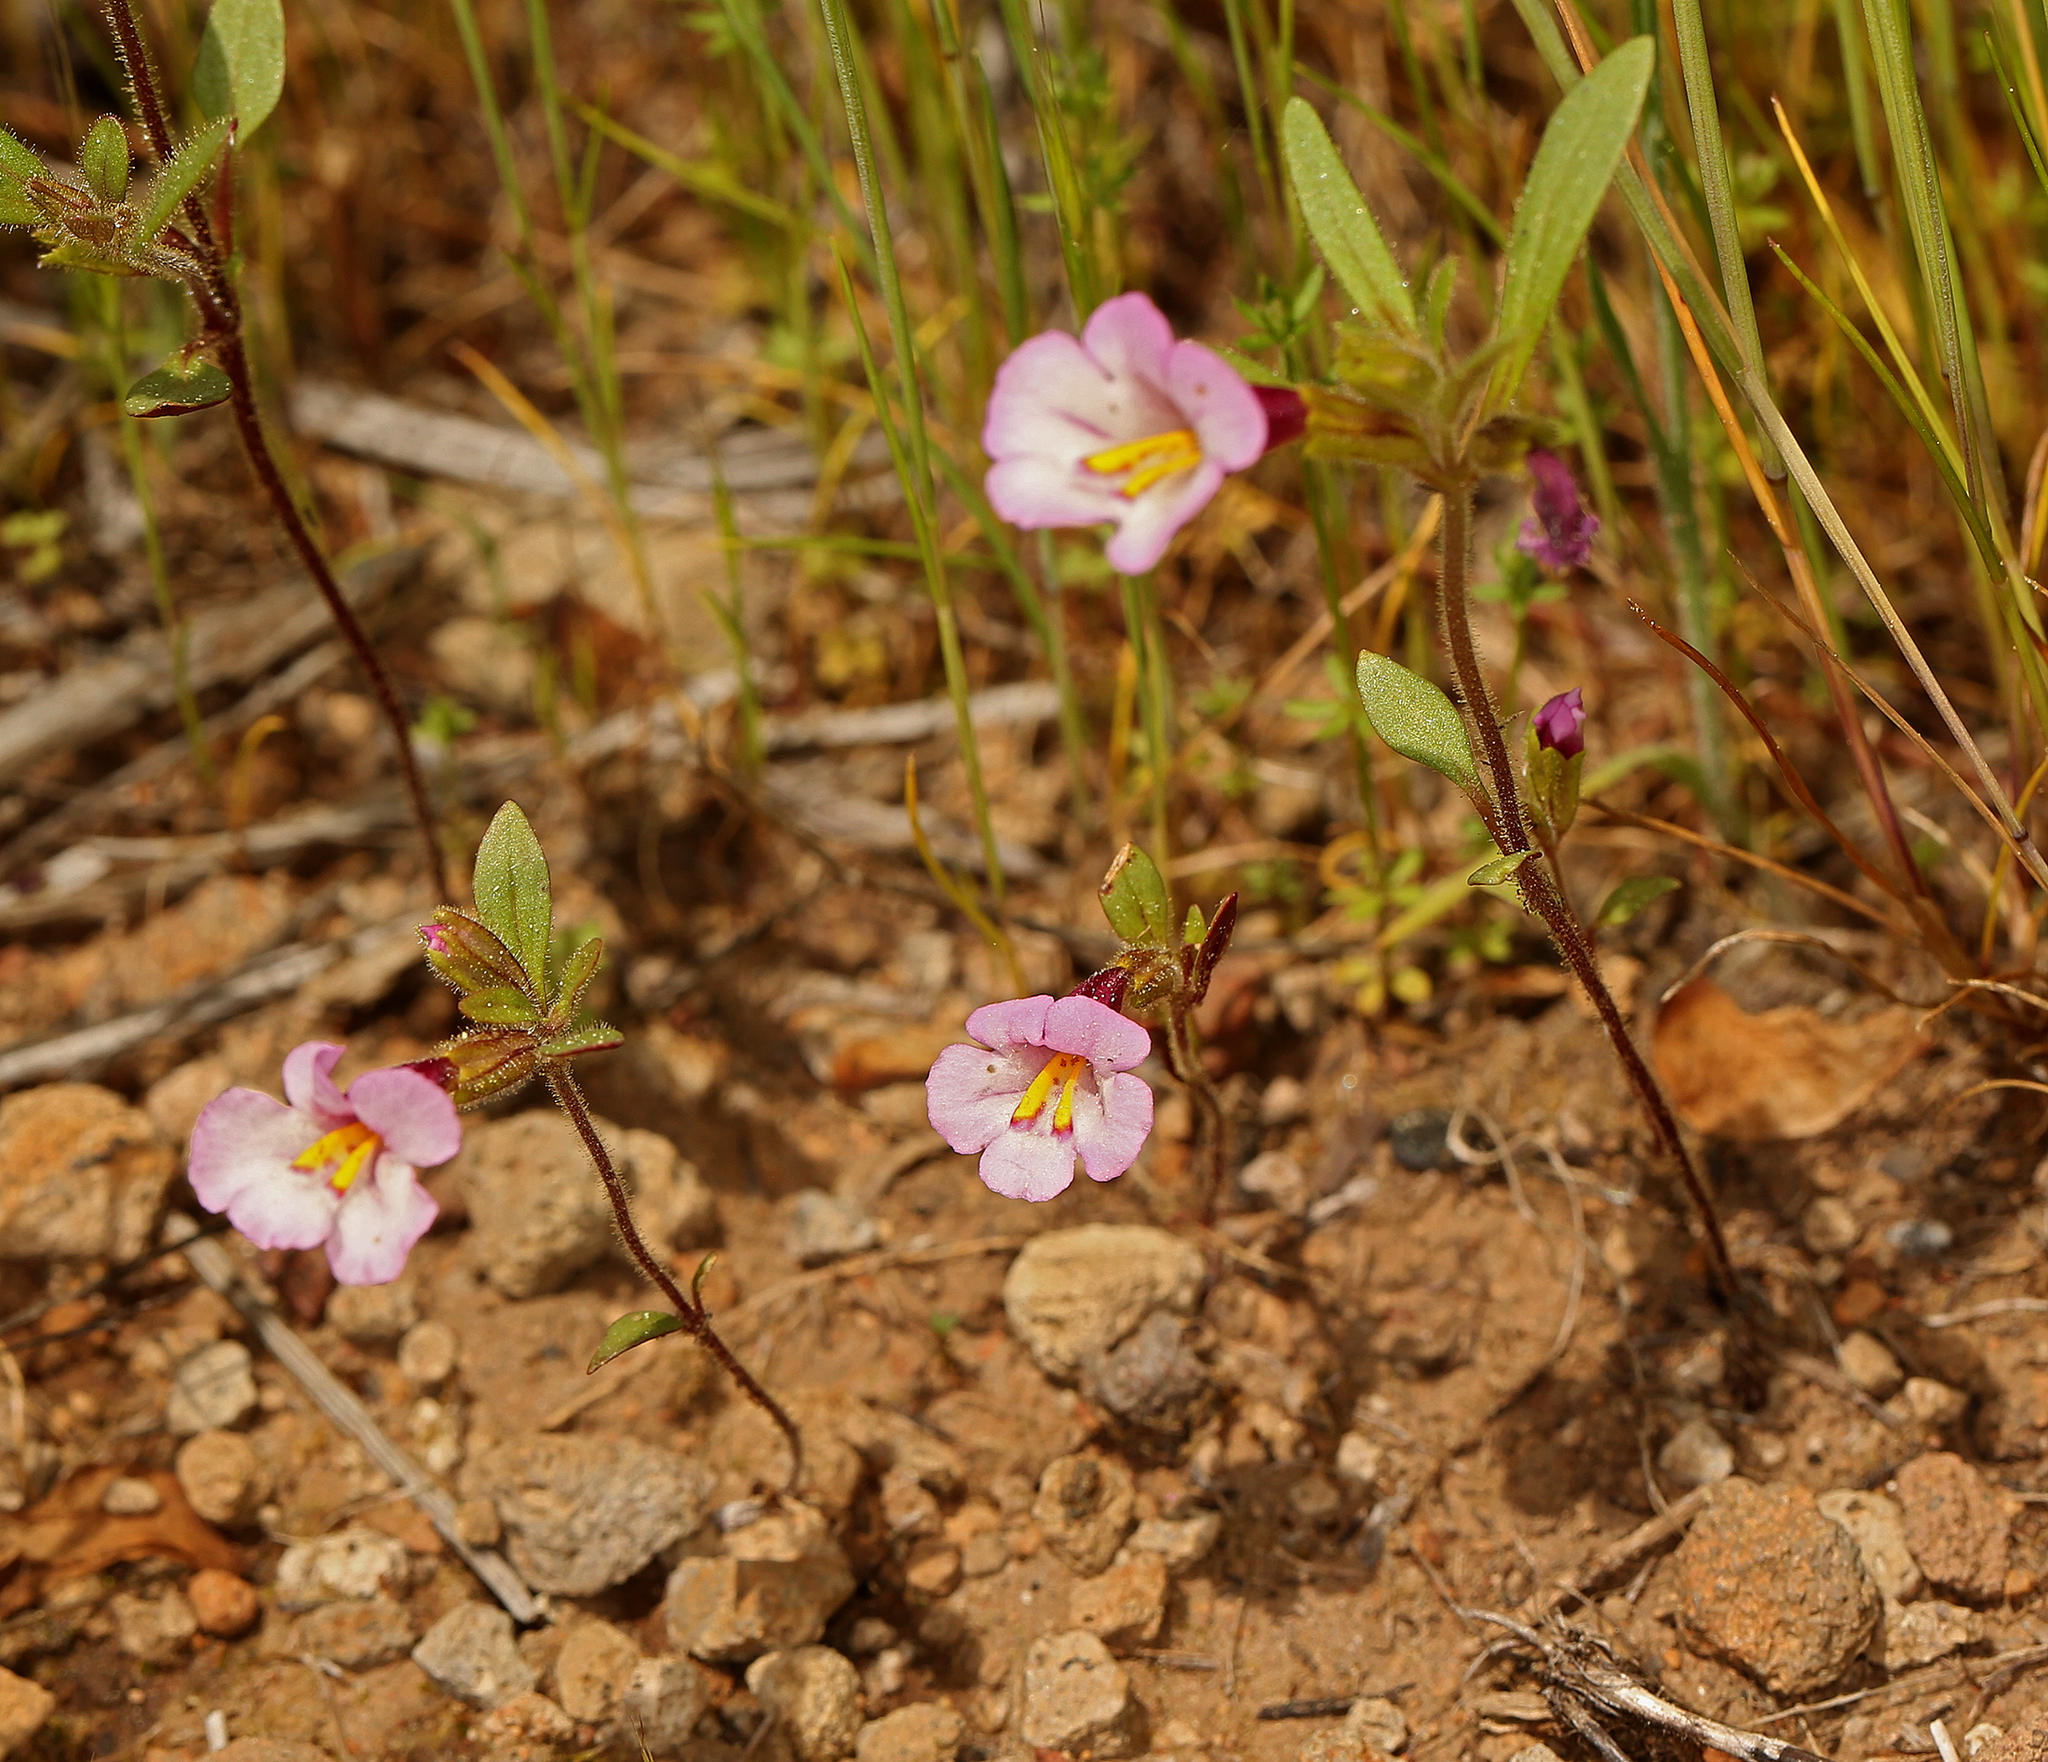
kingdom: Plantae
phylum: Tracheophyta
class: Magnoliopsida
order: Lamiales
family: Phrymaceae
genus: Diplacus
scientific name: Diplacus torreyi
